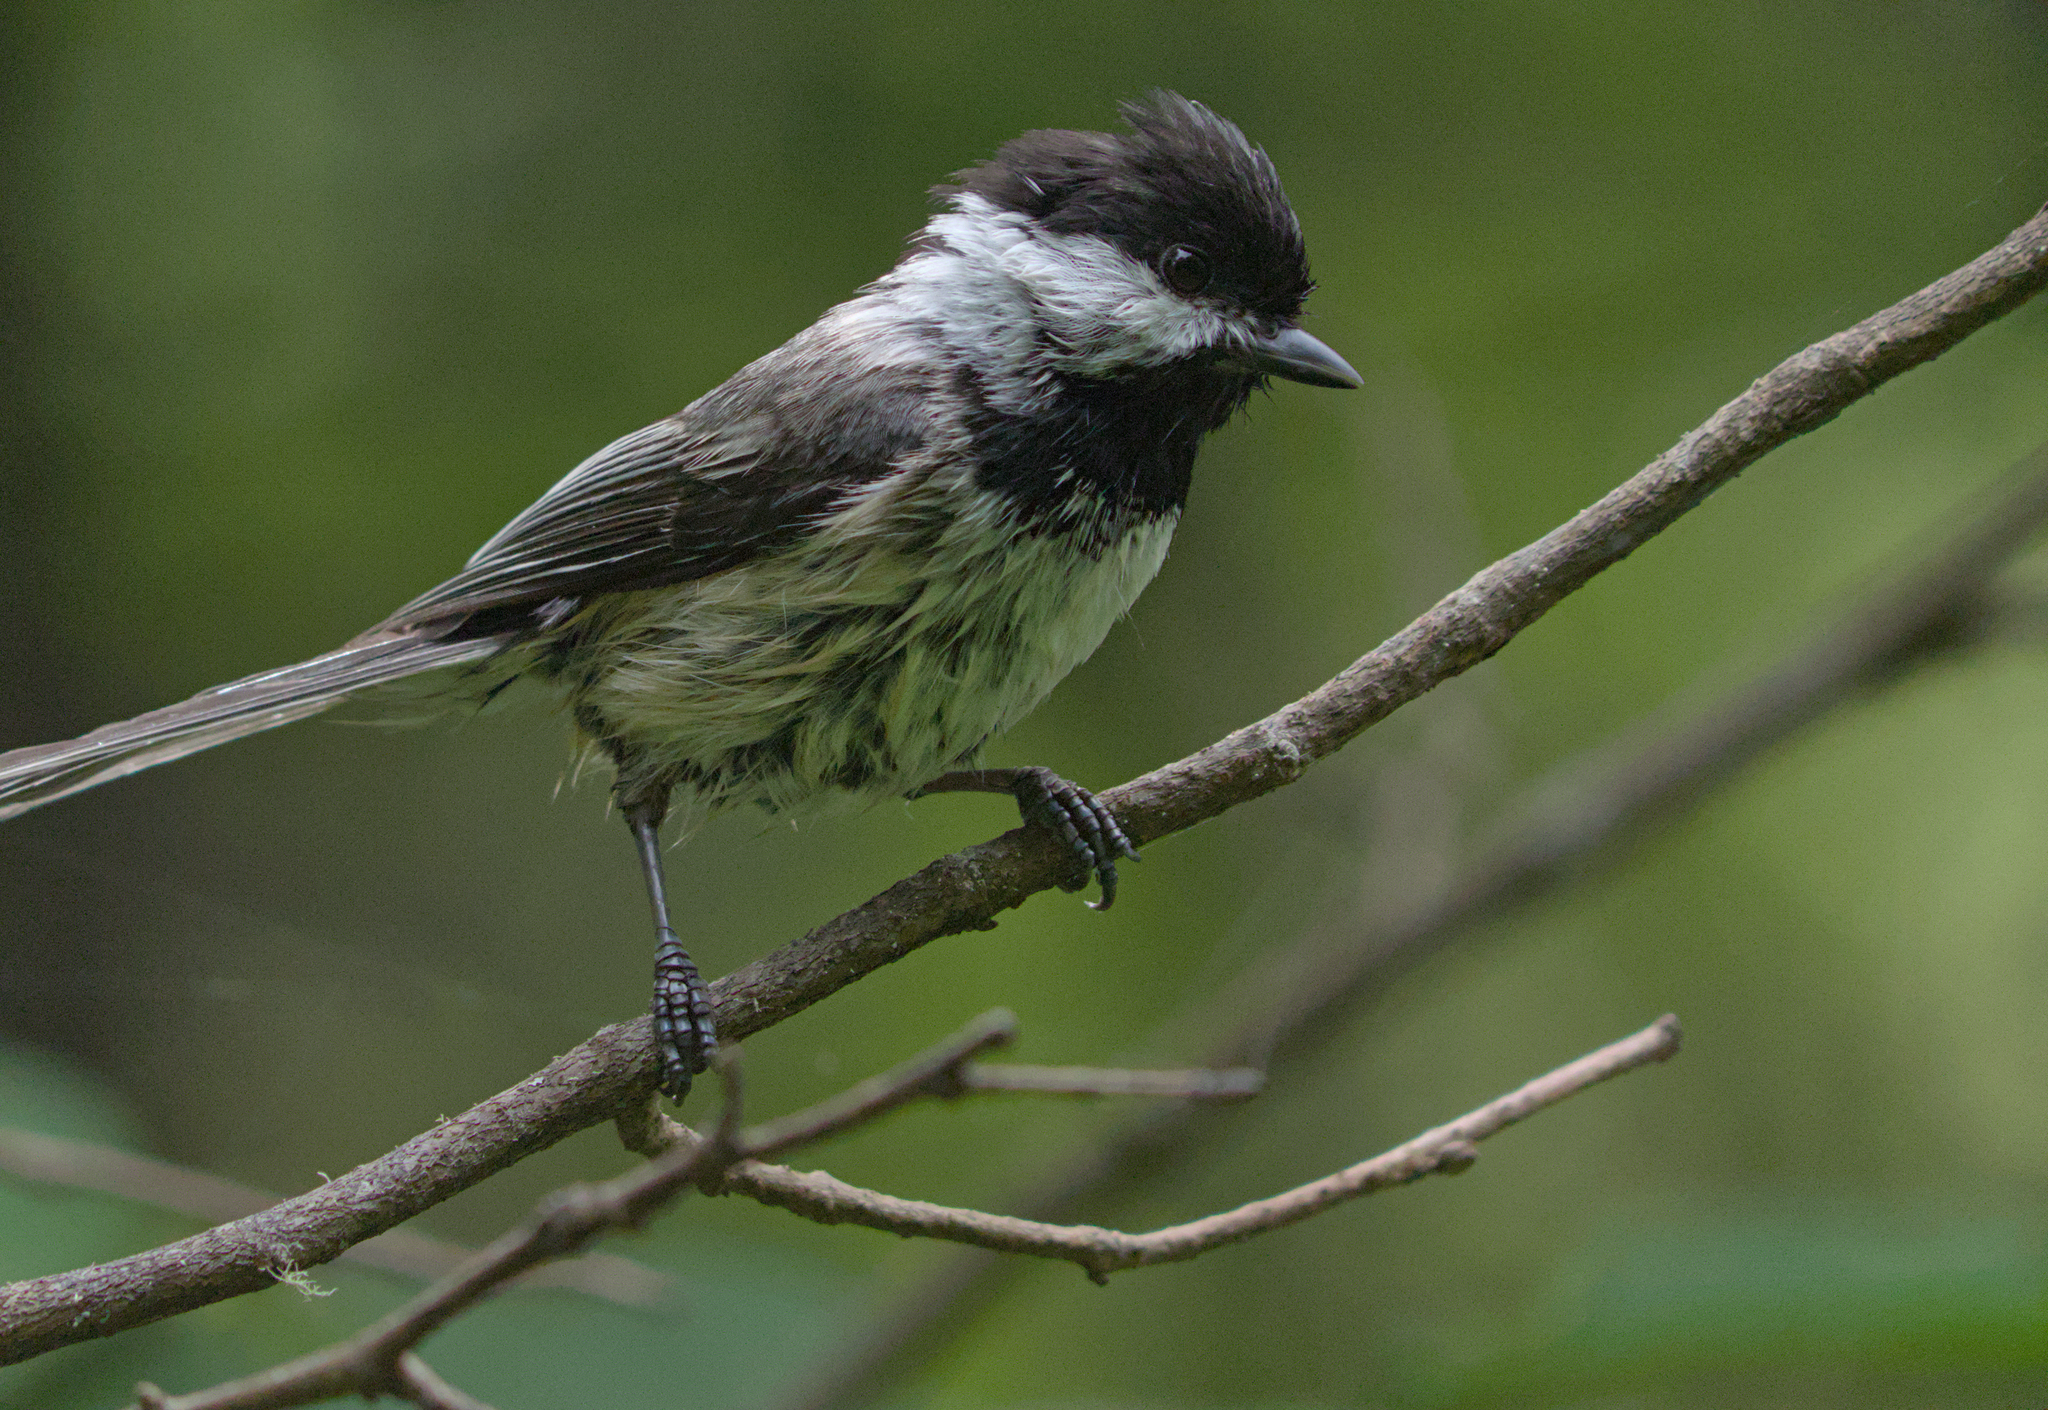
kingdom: Animalia
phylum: Chordata
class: Aves
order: Passeriformes
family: Paridae
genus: Poecile
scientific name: Poecile atricapillus
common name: Black-capped chickadee
